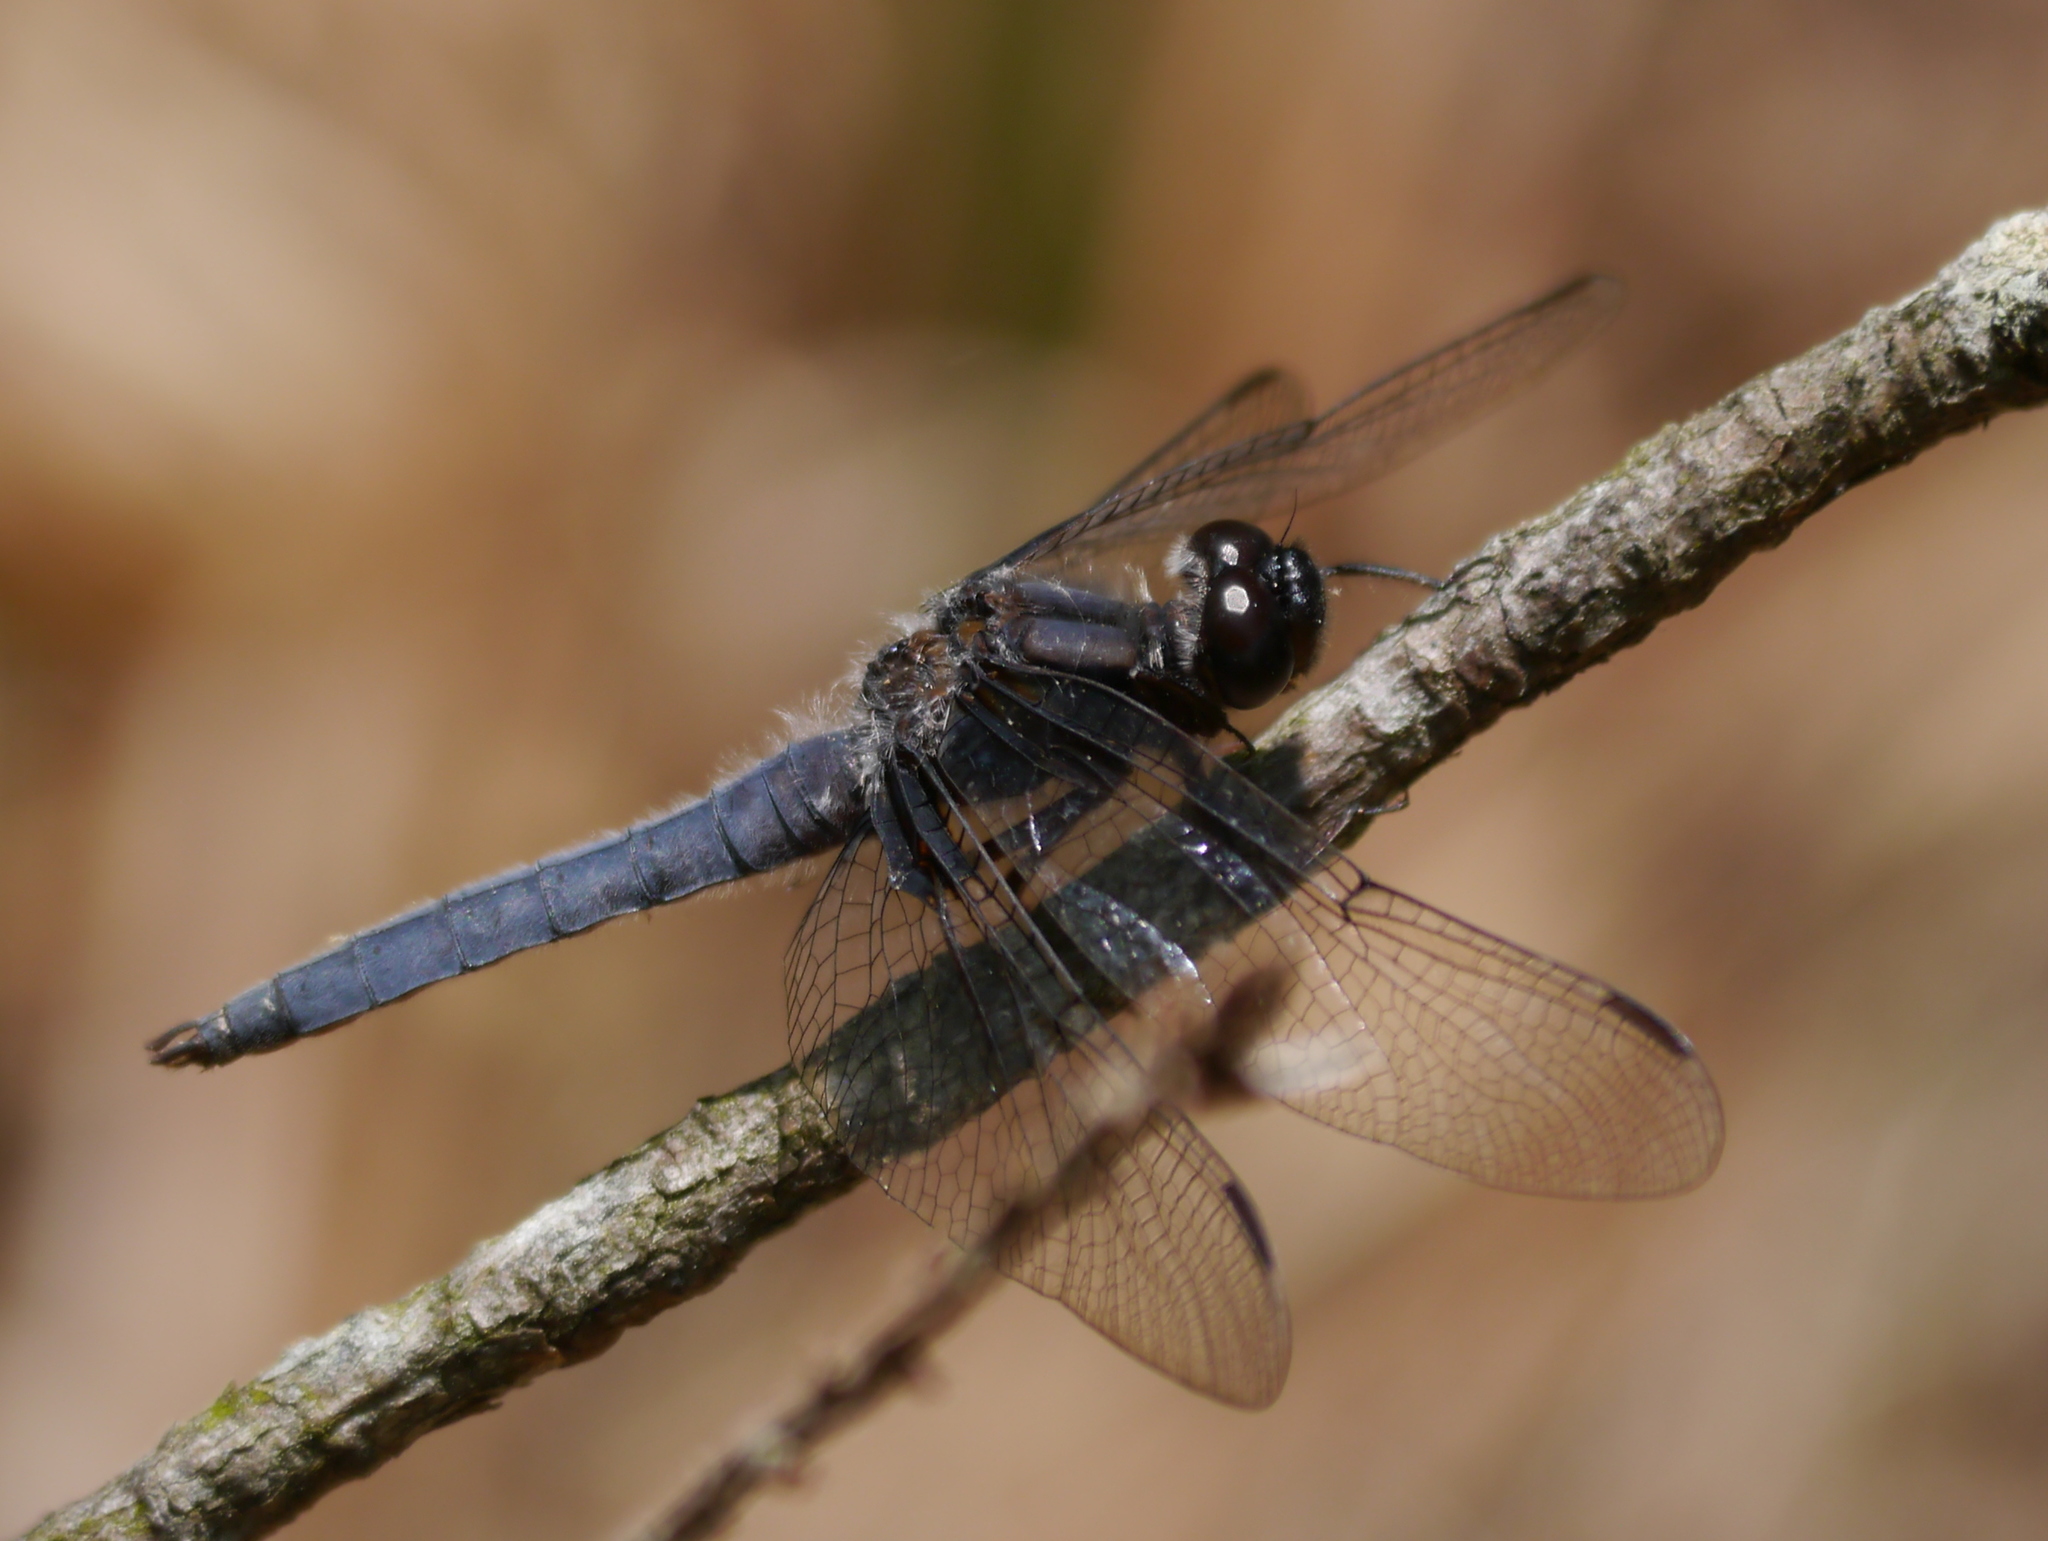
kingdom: Animalia
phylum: Arthropoda
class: Insecta
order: Odonata
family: Libellulidae
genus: Ladona
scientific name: Ladona deplanata
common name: Blue corporal
